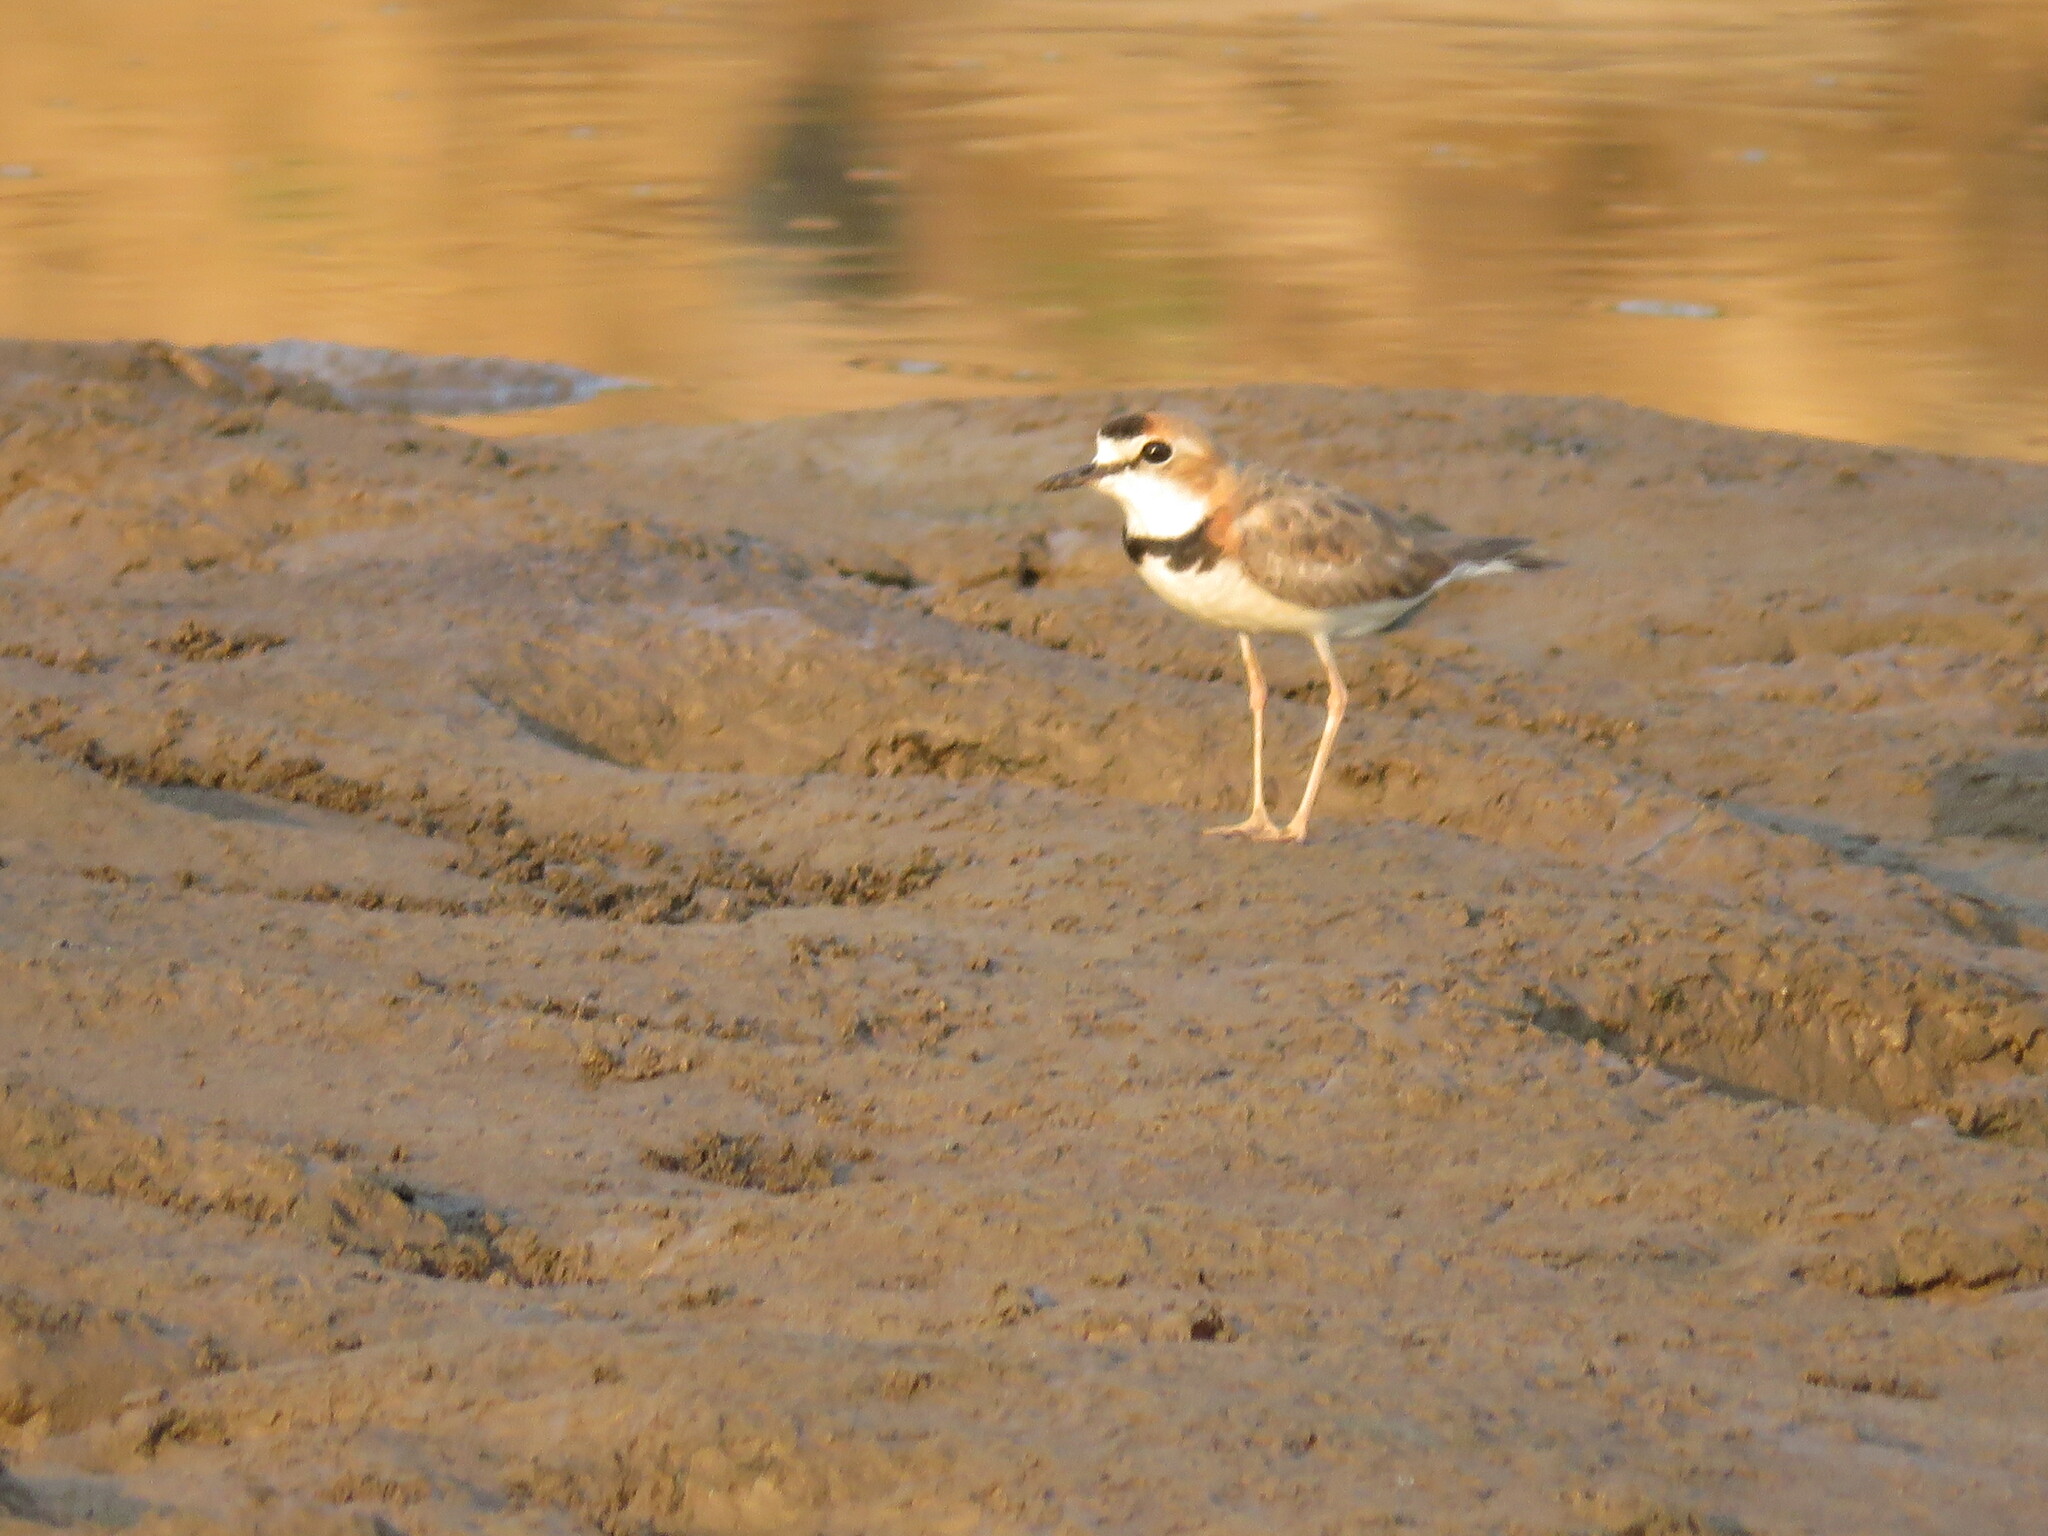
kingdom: Animalia
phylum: Chordata
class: Aves
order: Charadriiformes
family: Charadriidae
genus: Anarhynchus
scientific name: Anarhynchus
